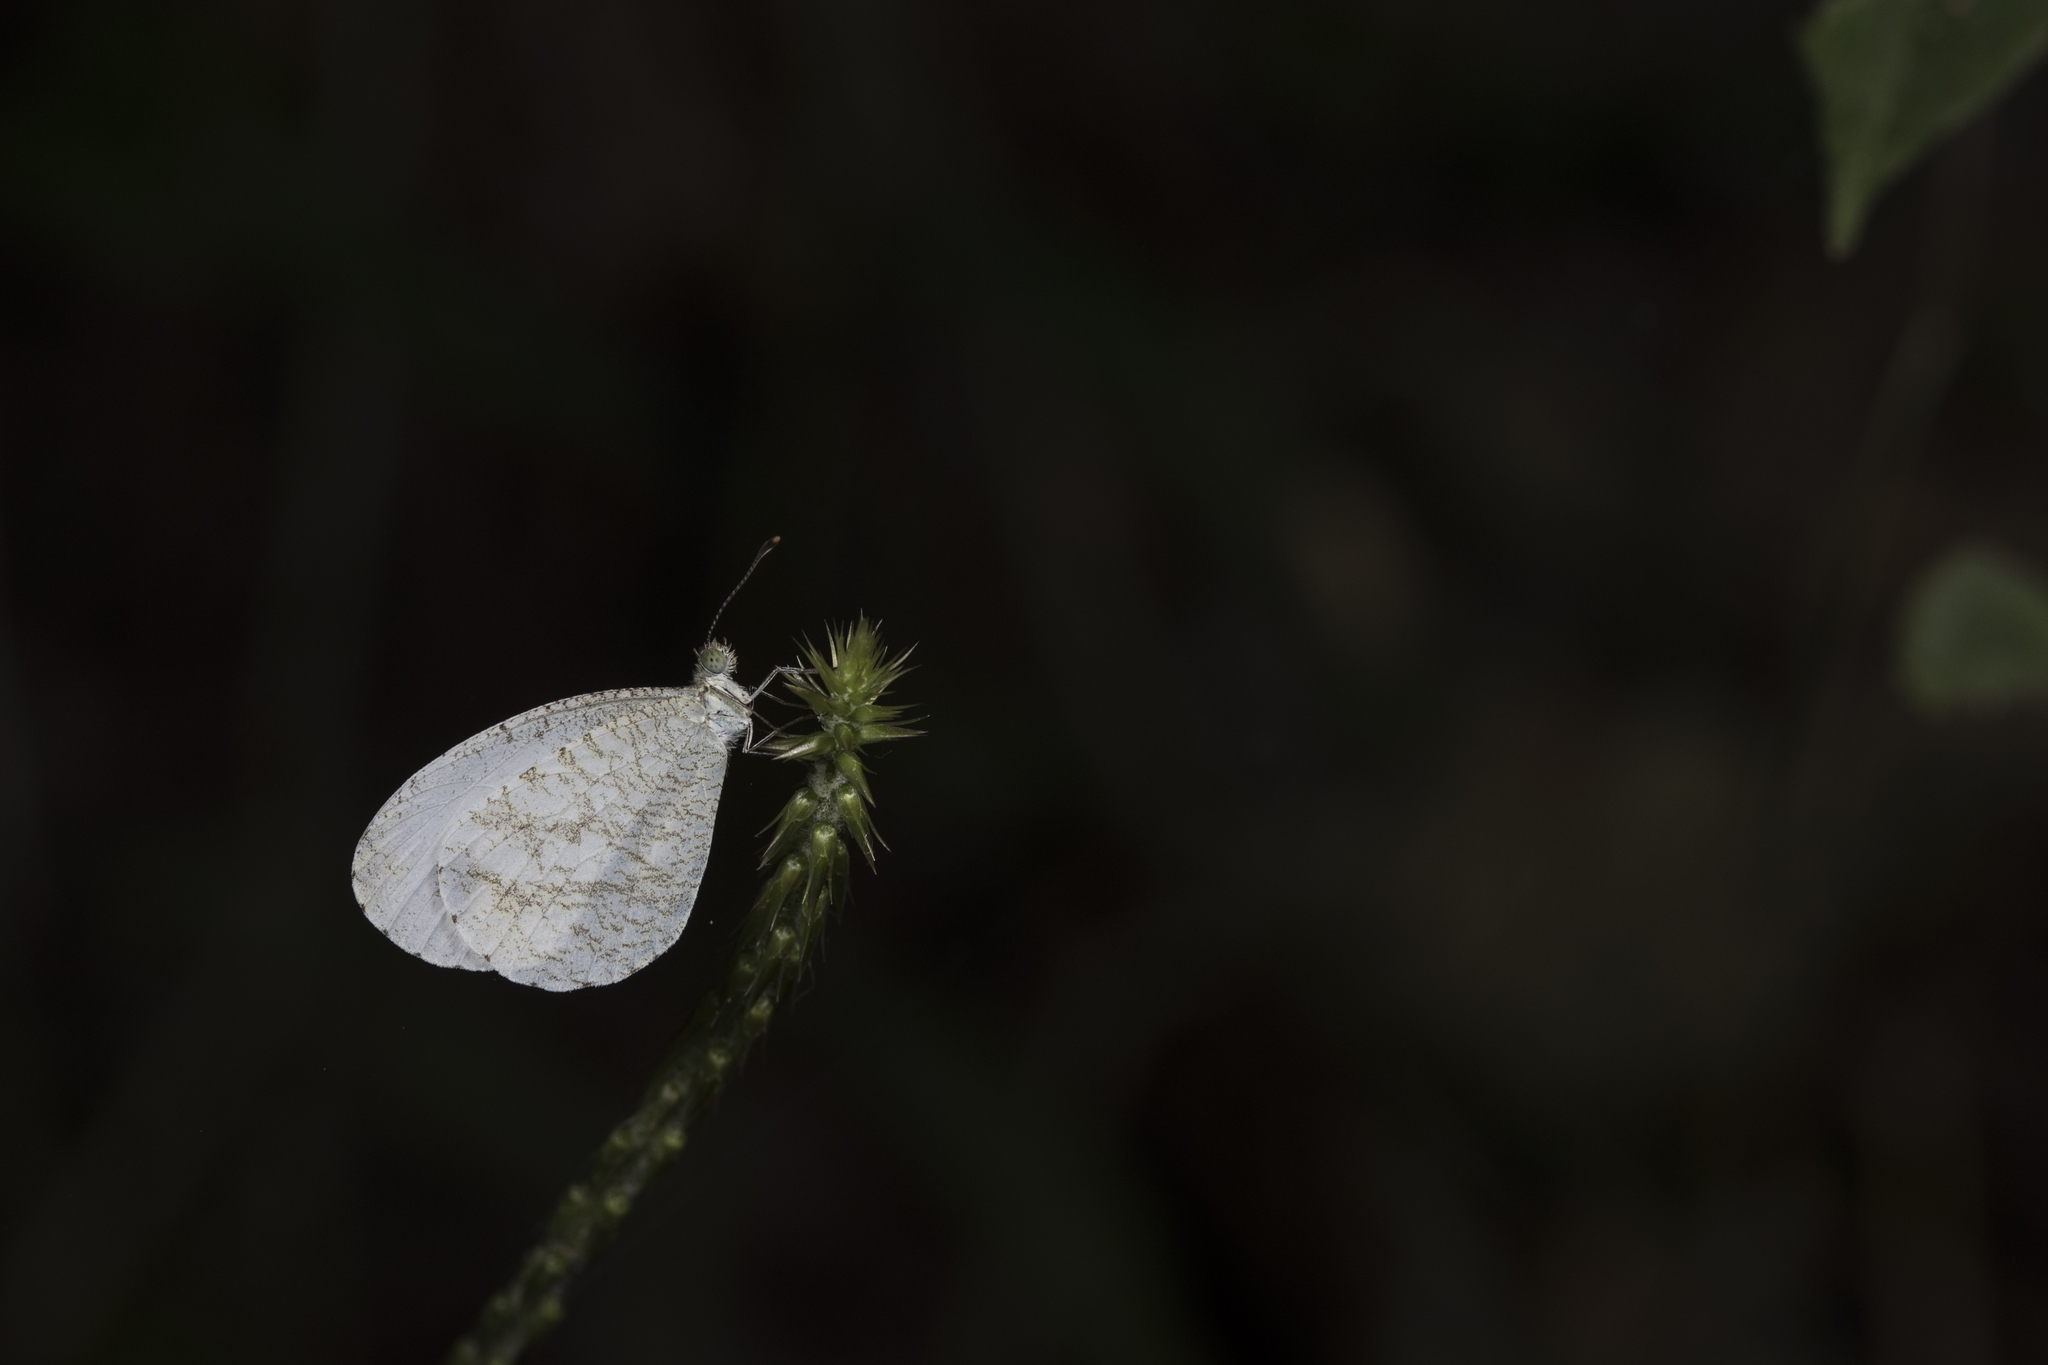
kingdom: Animalia
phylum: Arthropoda
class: Insecta
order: Lepidoptera
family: Pieridae
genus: Leptosia
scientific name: Leptosia nina
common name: Psyche
